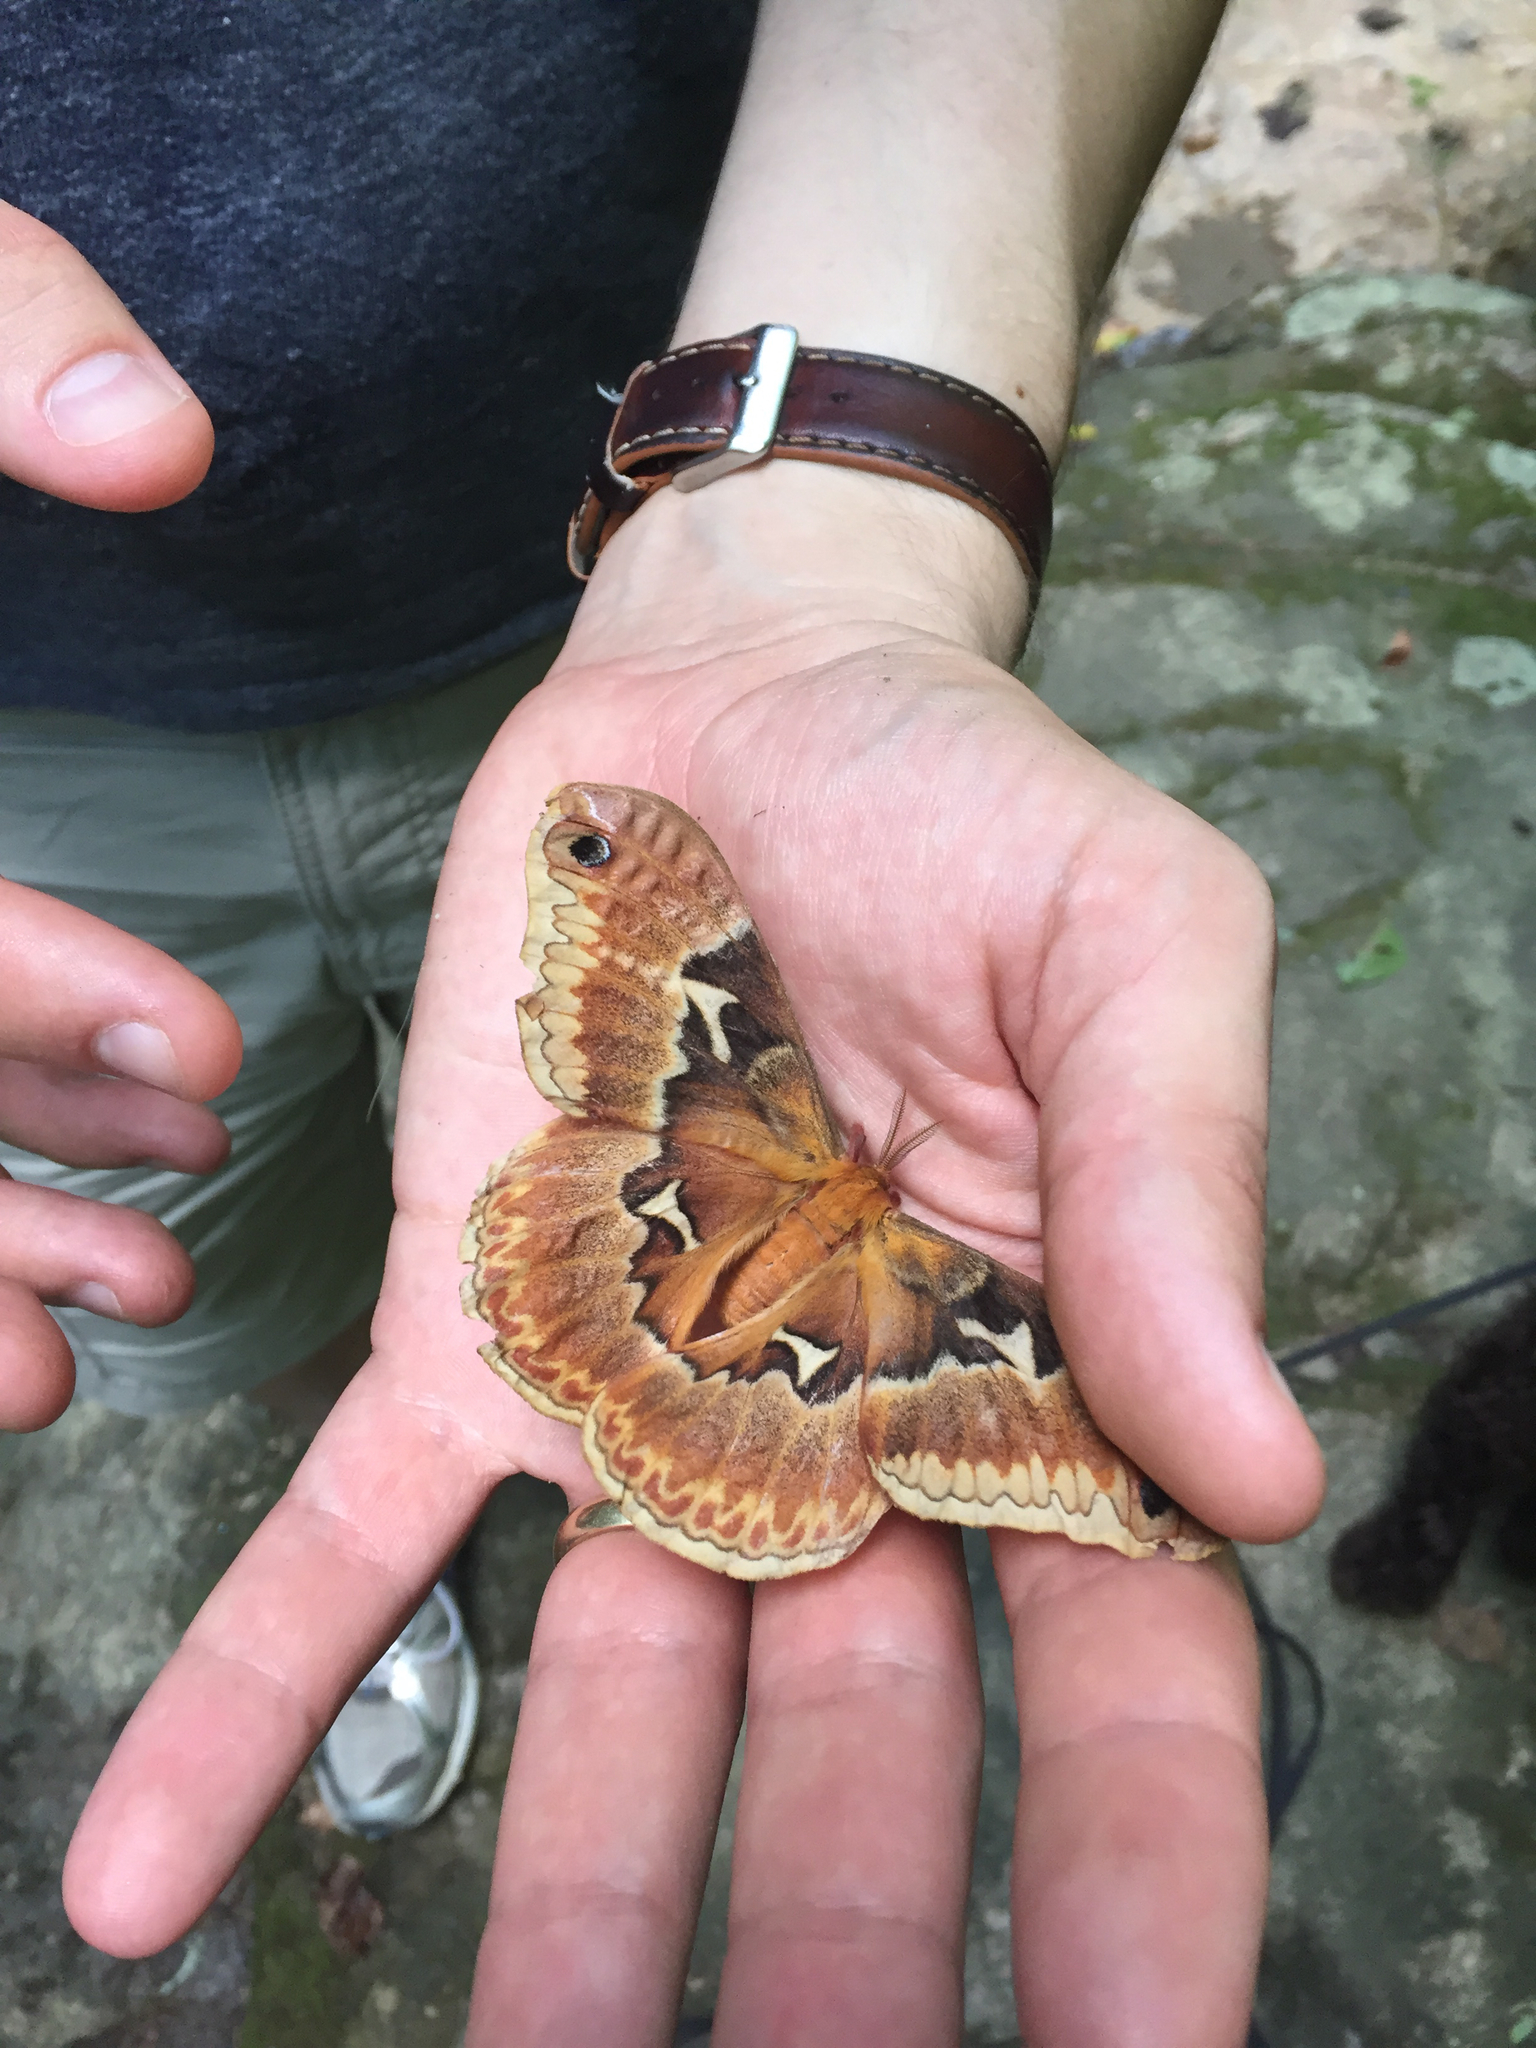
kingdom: Animalia
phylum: Arthropoda
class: Insecta
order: Lepidoptera
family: Saturniidae
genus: Callosamia
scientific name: Callosamia angulifera
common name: Tulip tree silkmoth
